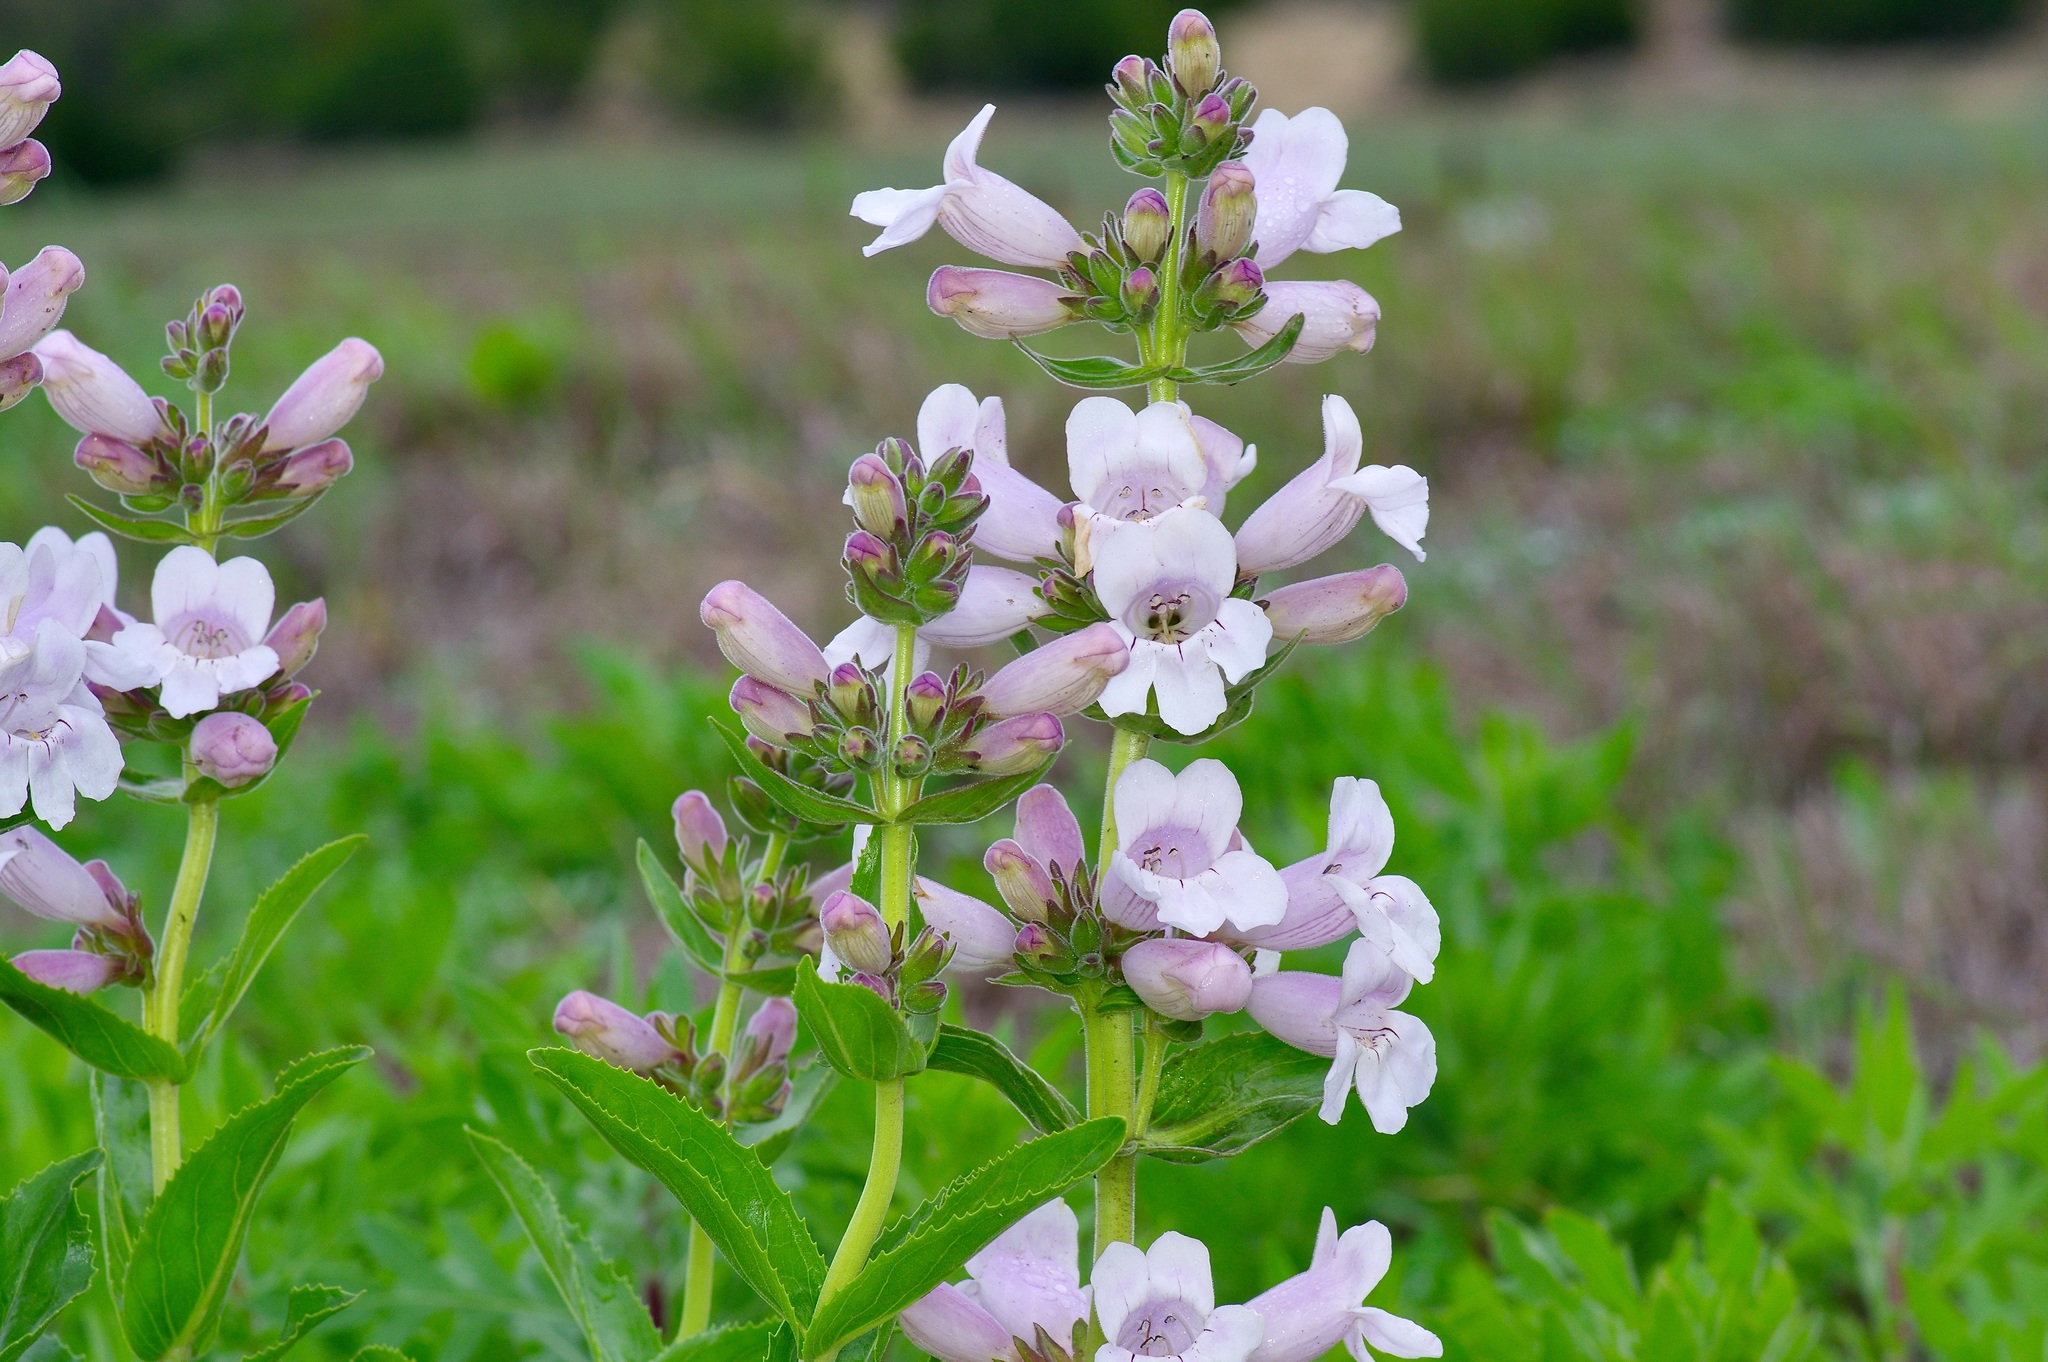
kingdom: Plantae
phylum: Tracheophyta
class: Magnoliopsida
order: Lamiales
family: Plantaginaceae
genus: Penstemon
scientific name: Penstemon cobaea
